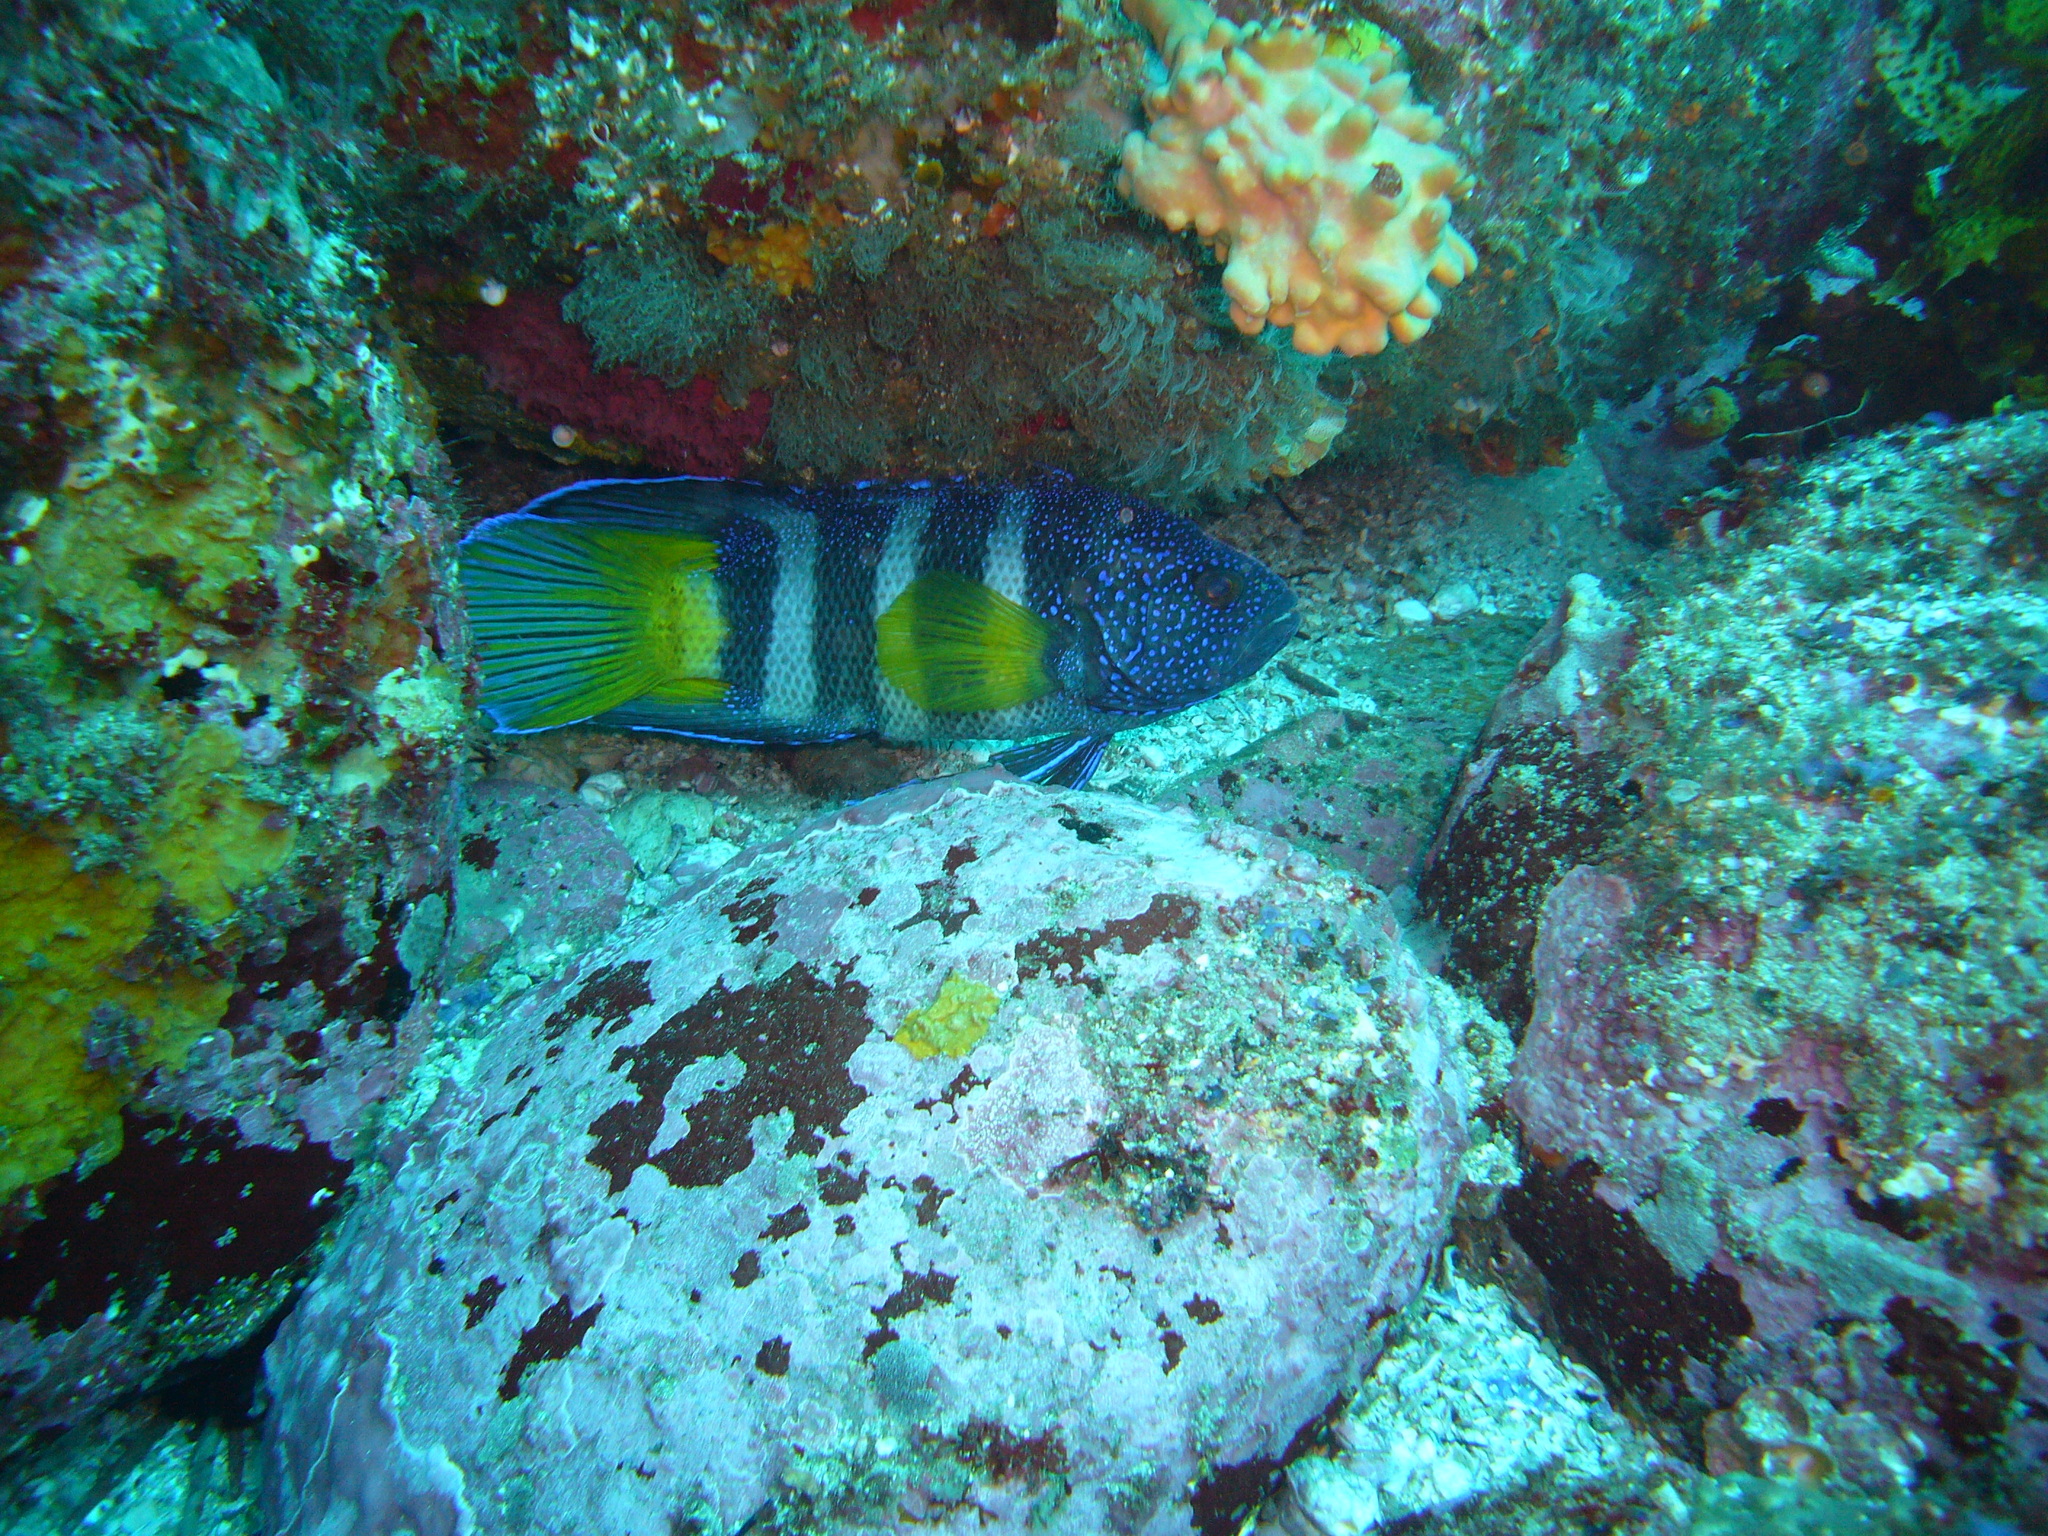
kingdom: Animalia
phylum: Chordata
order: Perciformes
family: Plesiopidae
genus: Paraplesiops
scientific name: Paraplesiops bleekeri
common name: Bleeker's devilfish
